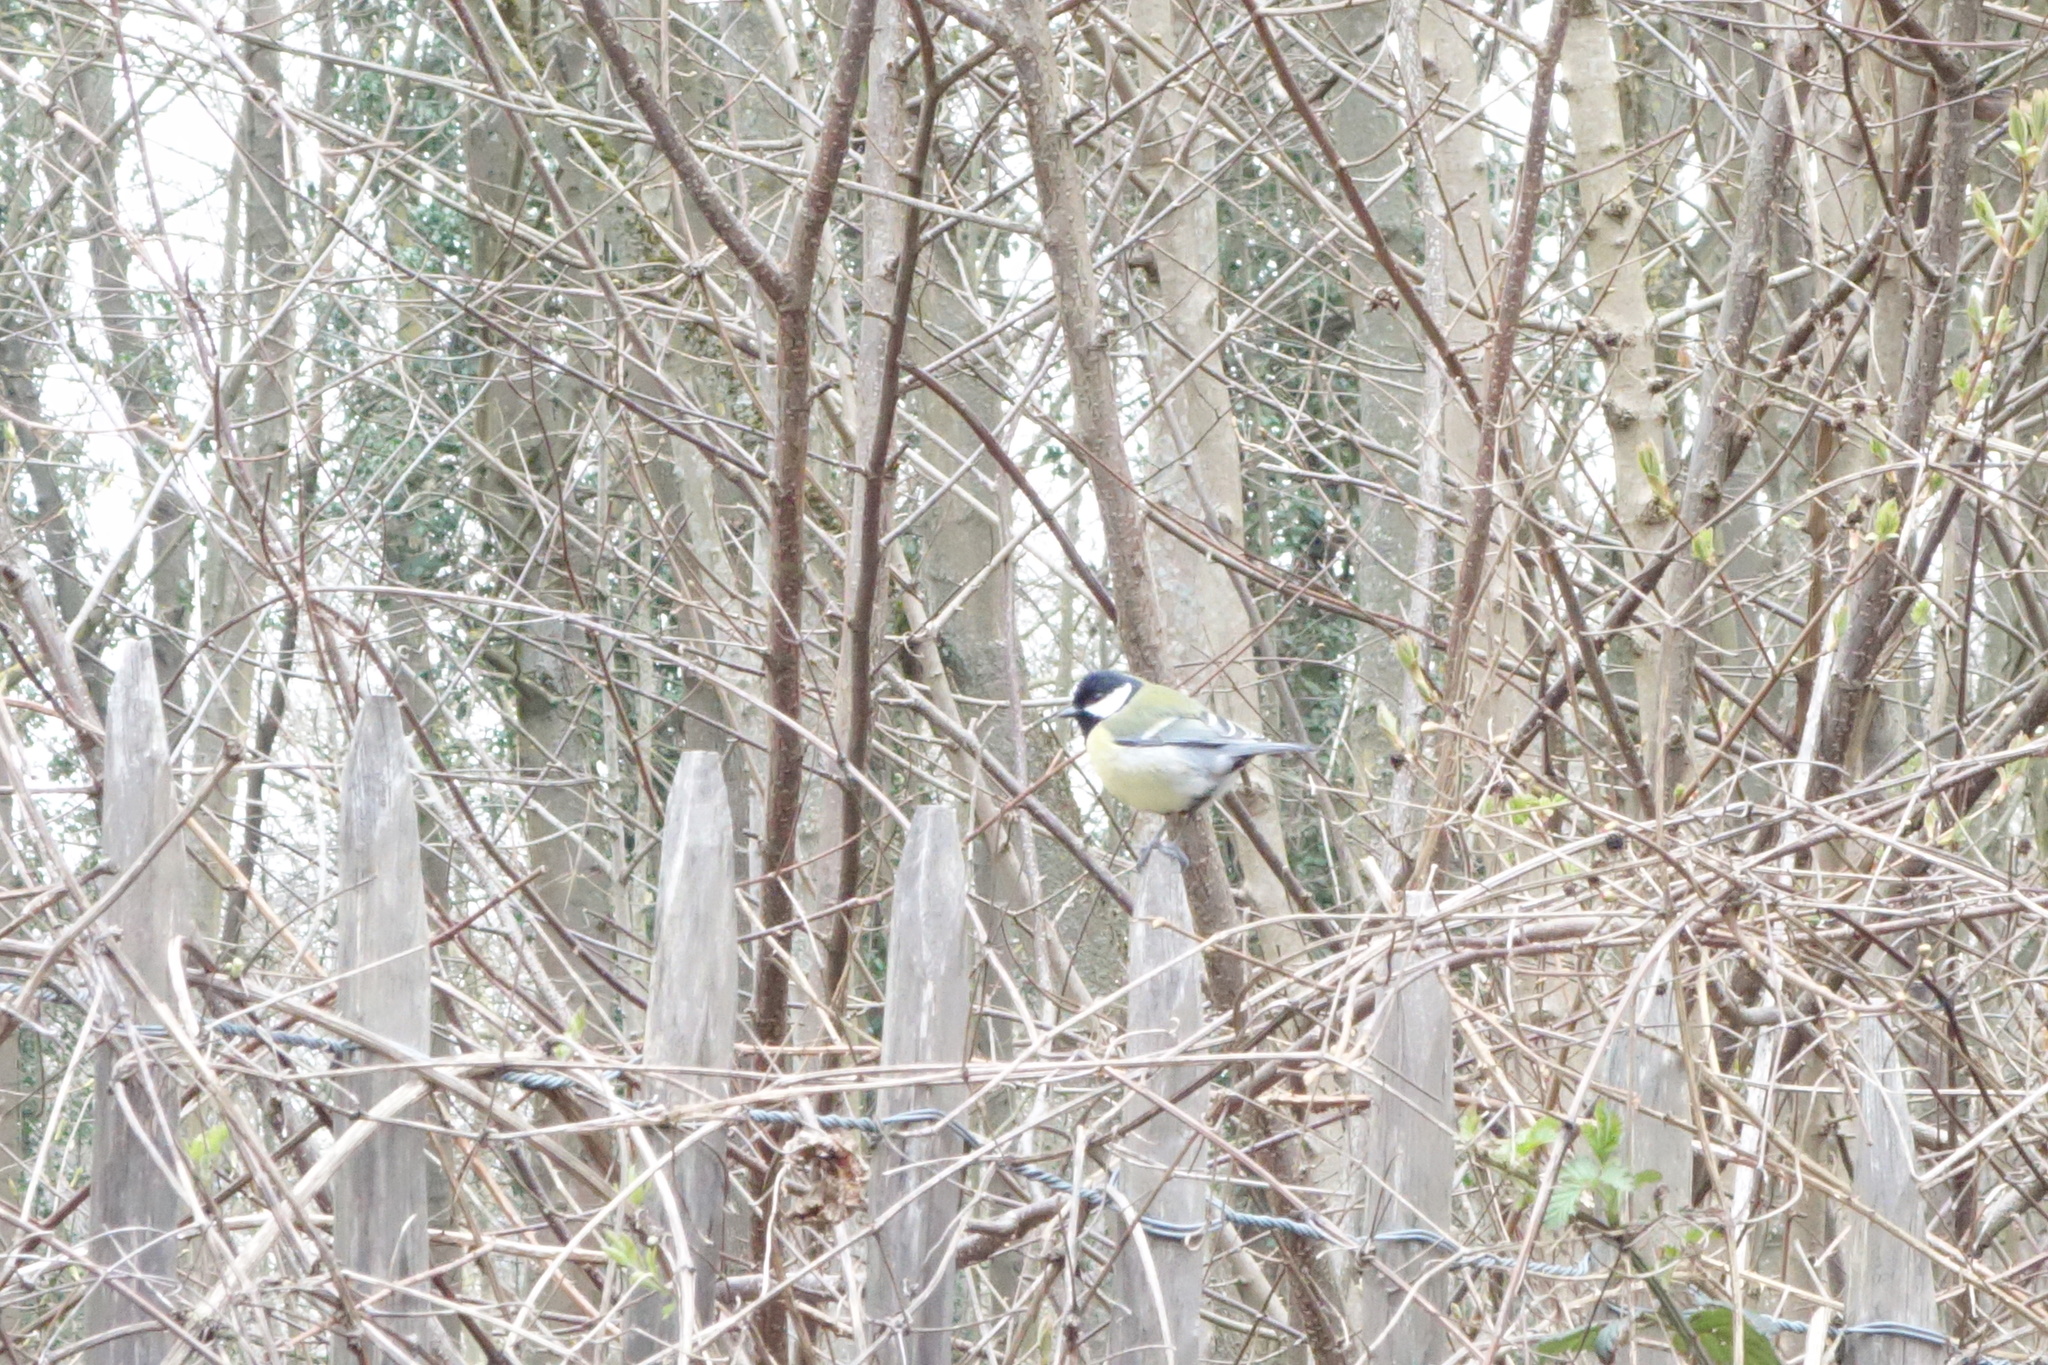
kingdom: Animalia
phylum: Chordata
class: Aves
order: Passeriformes
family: Paridae
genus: Parus
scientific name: Parus major
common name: Great tit
